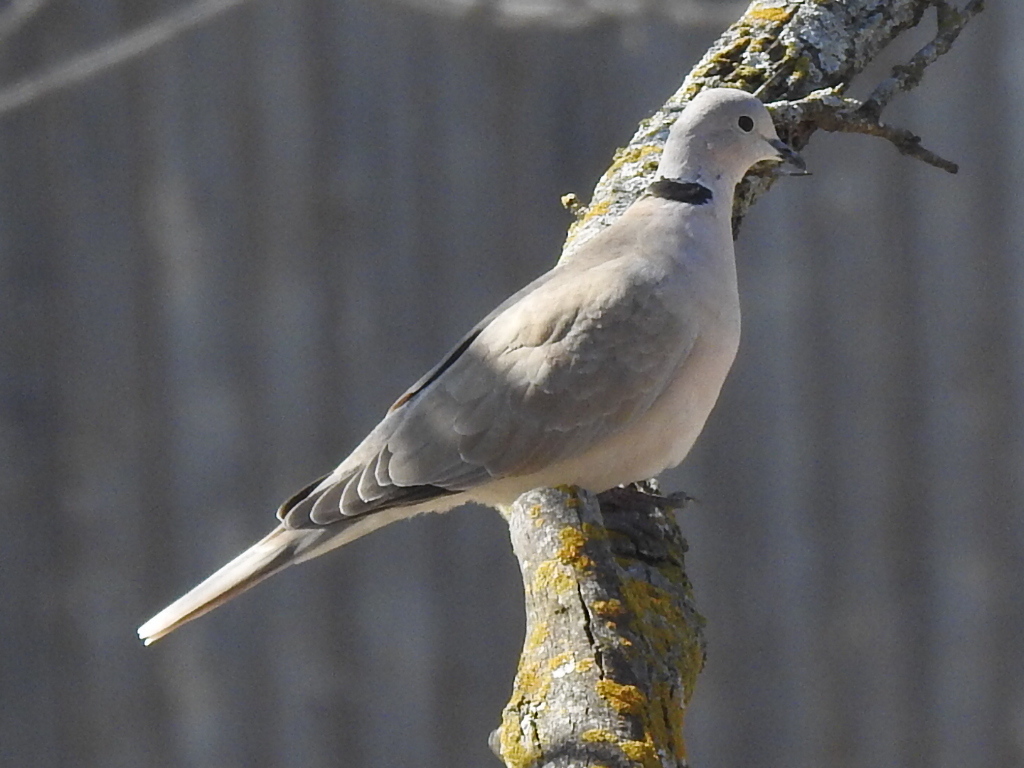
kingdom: Animalia
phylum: Chordata
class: Aves
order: Columbiformes
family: Columbidae
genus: Streptopelia
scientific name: Streptopelia decaocto
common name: Eurasian collared dove
